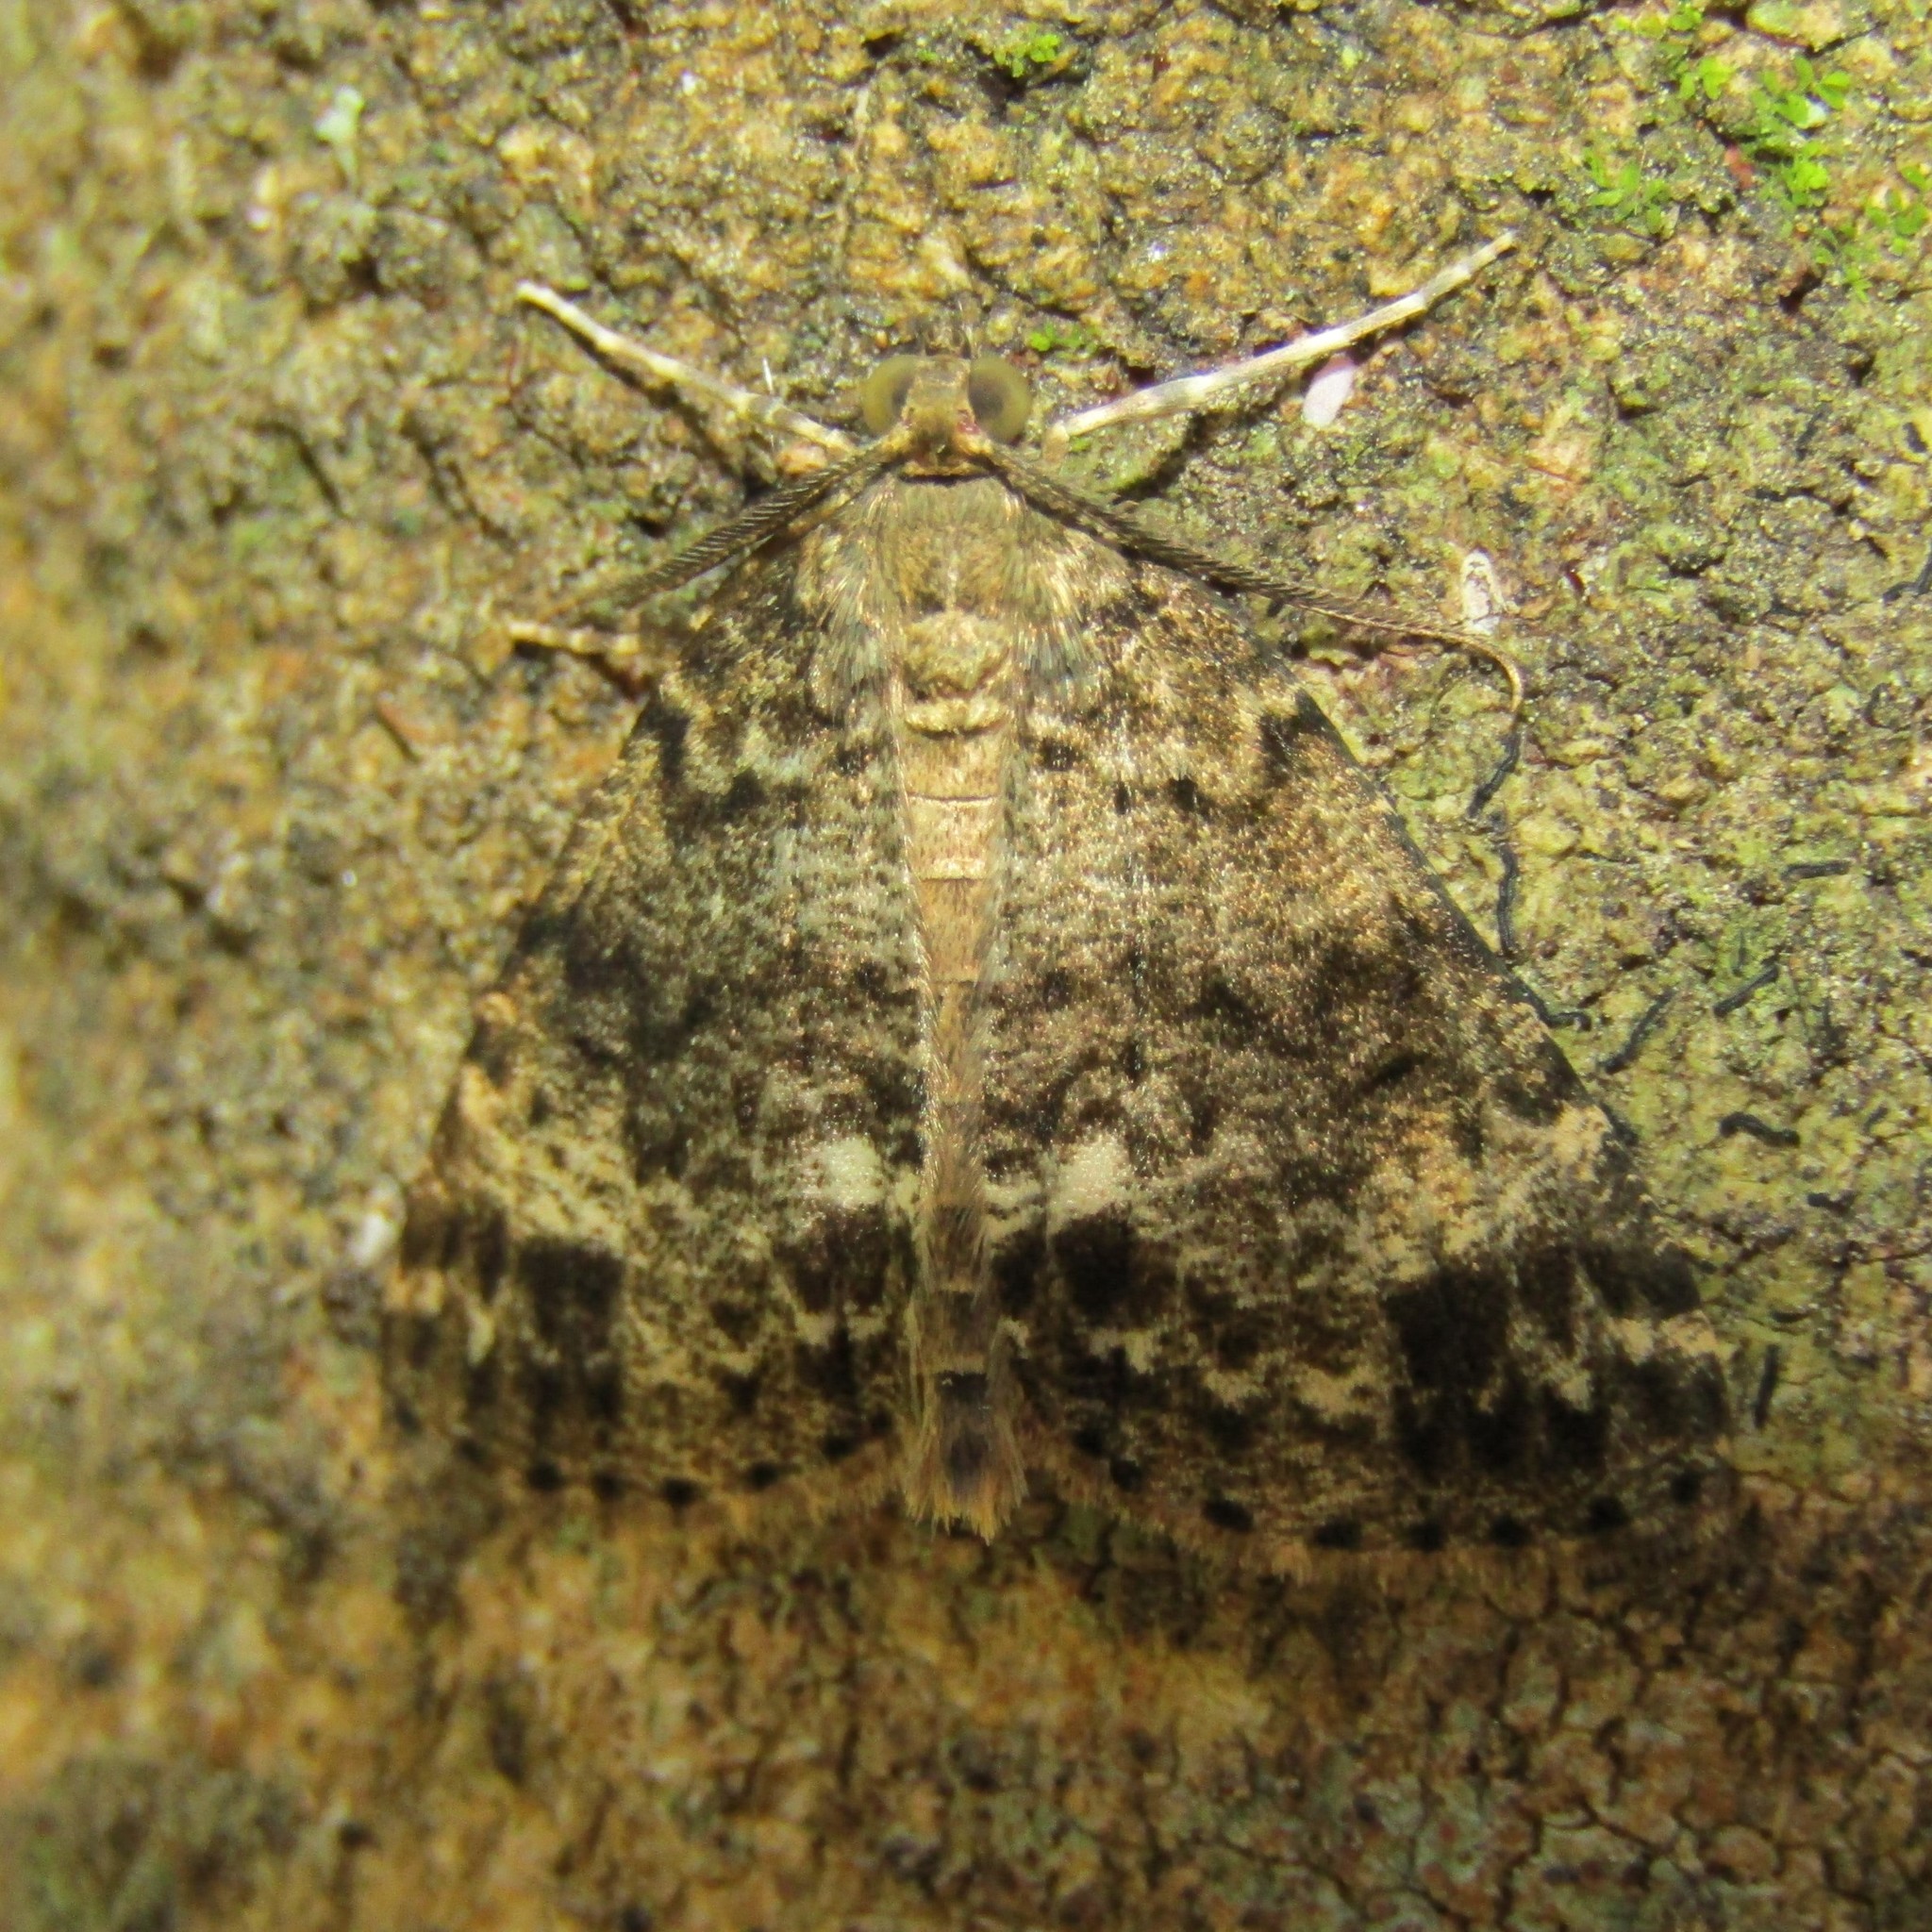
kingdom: Animalia
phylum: Arthropoda
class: Insecta
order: Lepidoptera
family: Geometridae
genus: Pseudocoremia
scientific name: Pseudocoremia indistincta
